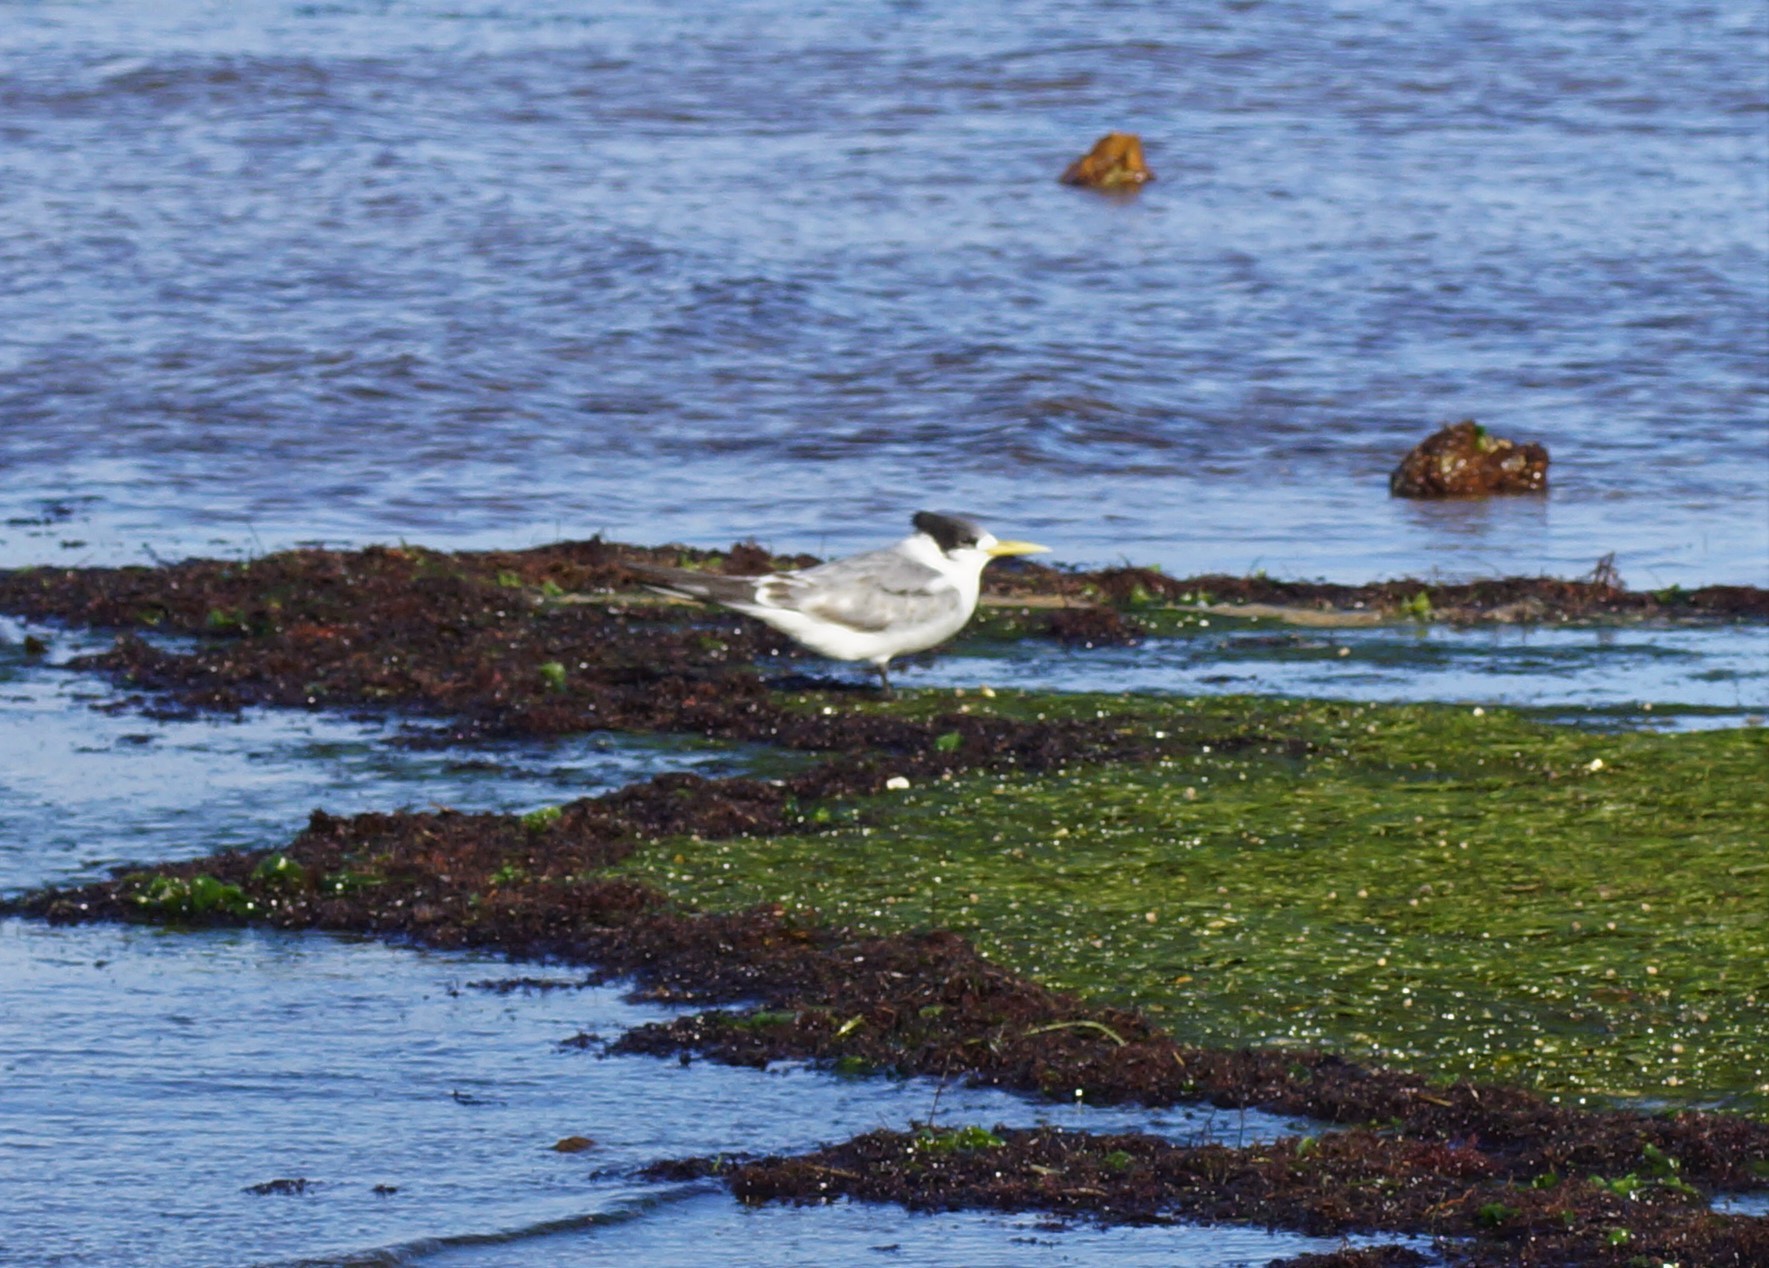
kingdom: Animalia
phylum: Chordata
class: Aves
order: Charadriiformes
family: Laridae
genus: Thalasseus
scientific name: Thalasseus bergii
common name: Greater crested tern
